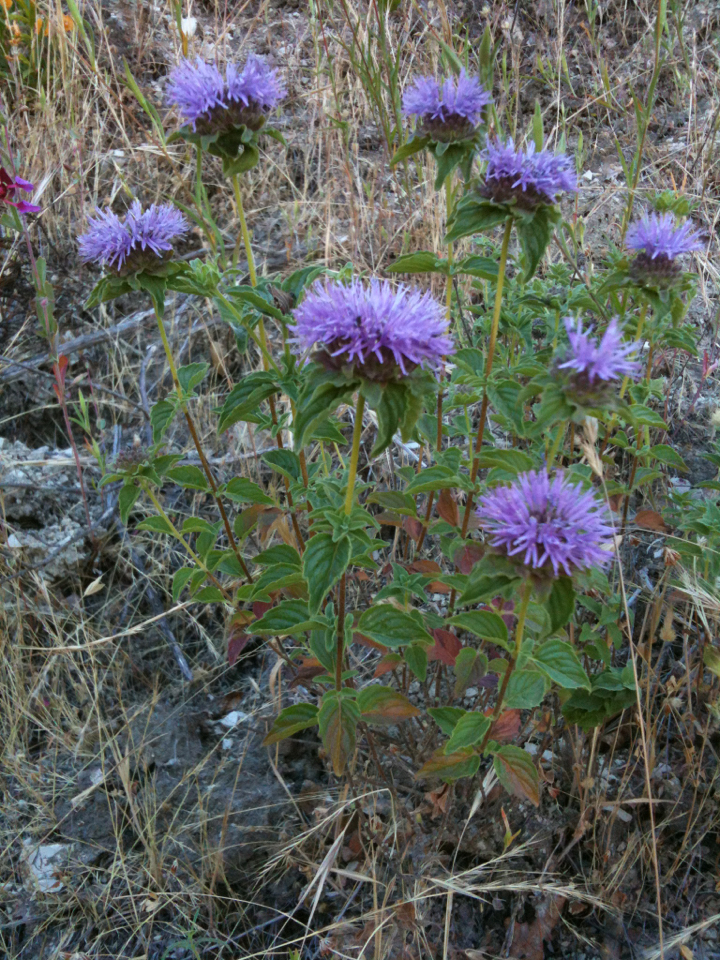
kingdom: Plantae
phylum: Tracheophyta
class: Magnoliopsida
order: Lamiales
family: Lamiaceae
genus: Monardella
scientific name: Monardella odoratissima
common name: Pacific monardella
